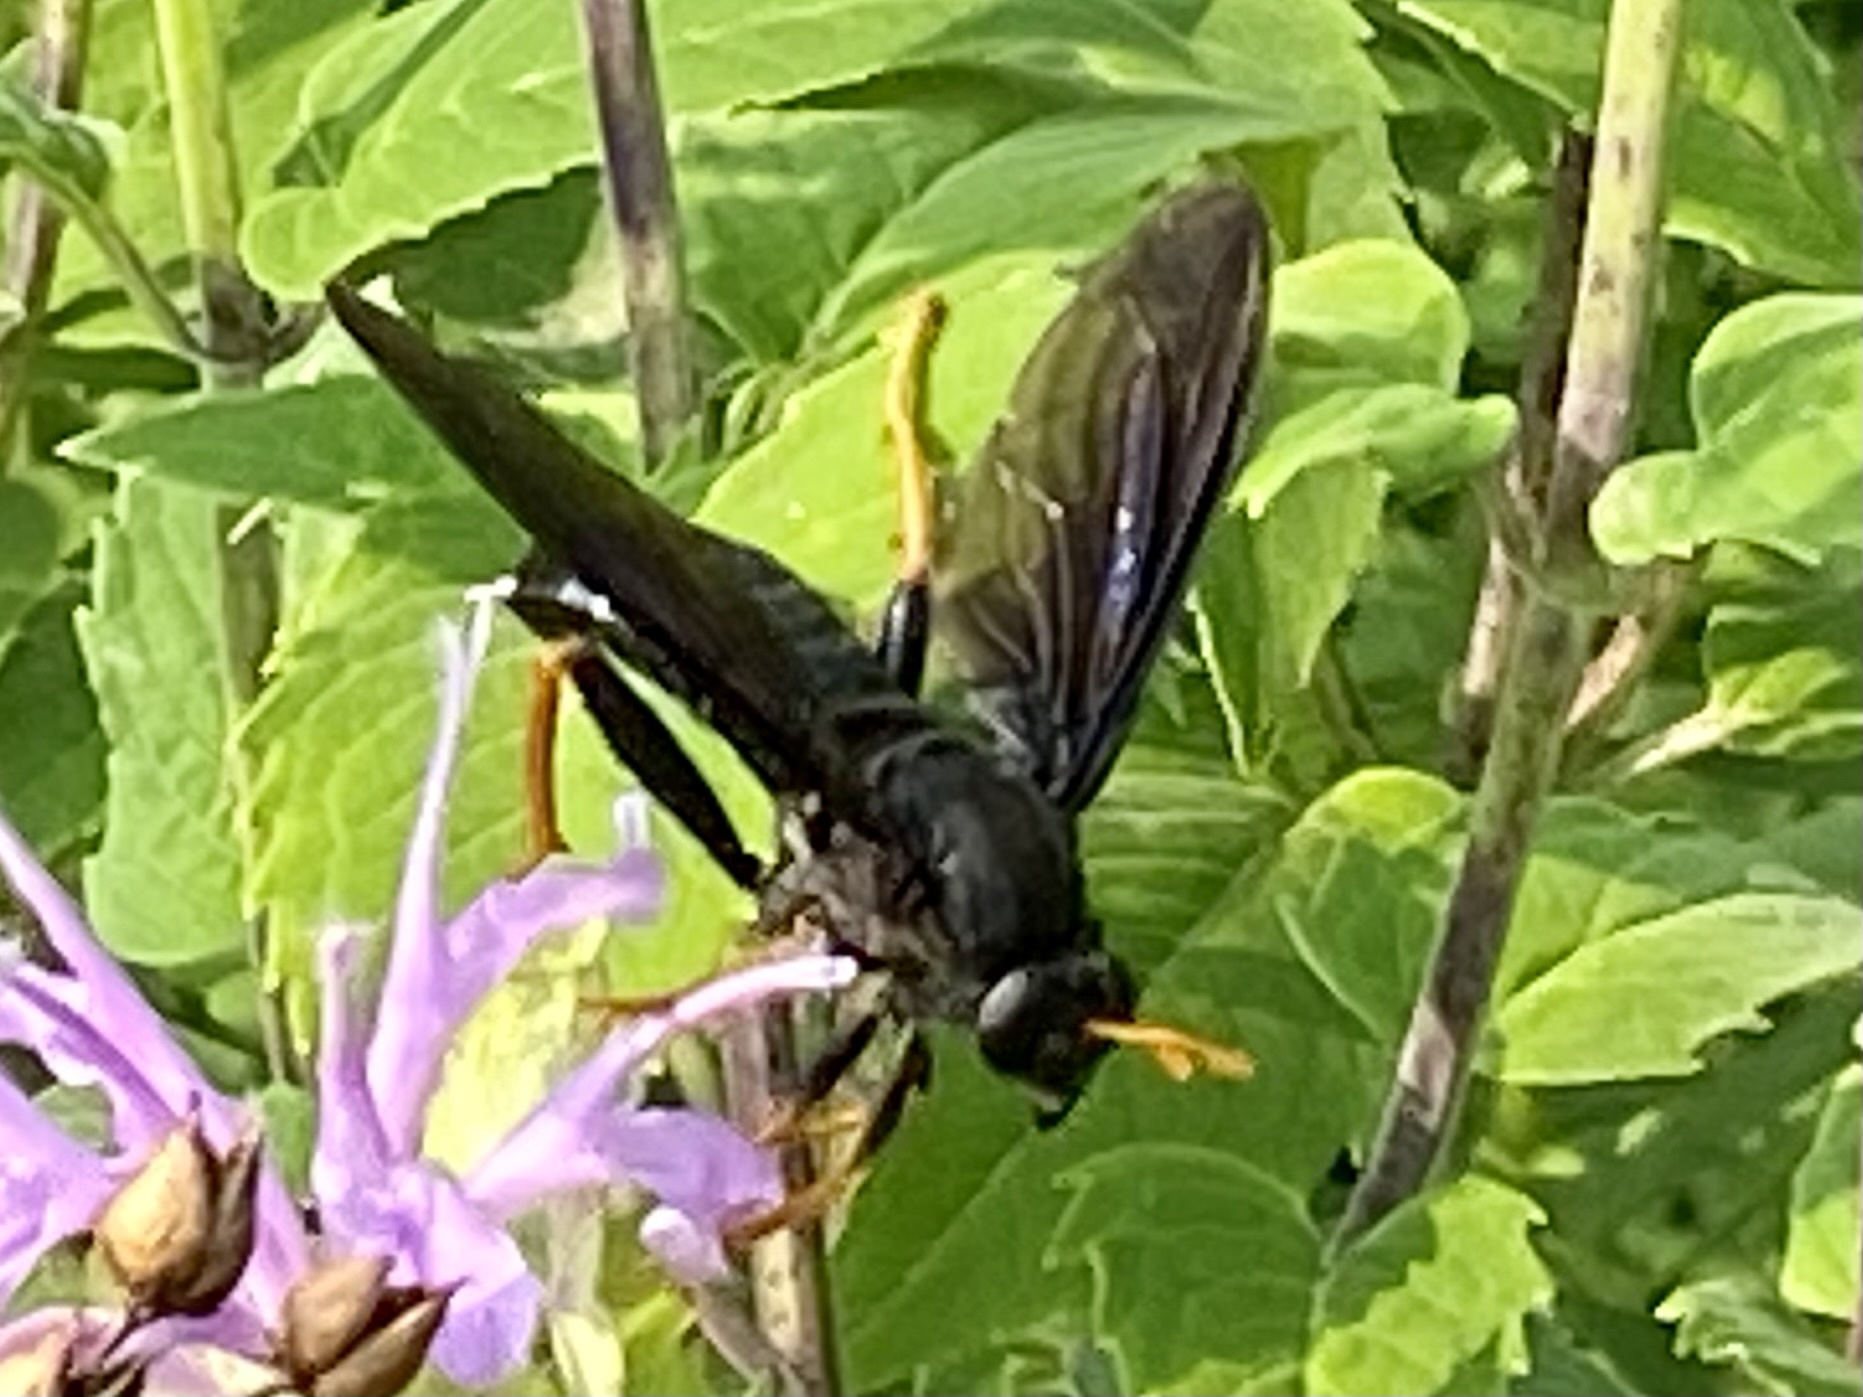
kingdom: Animalia
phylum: Arthropoda
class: Insecta
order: Diptera
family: Mydidae
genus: Mydas
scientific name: Mydas tibialis
